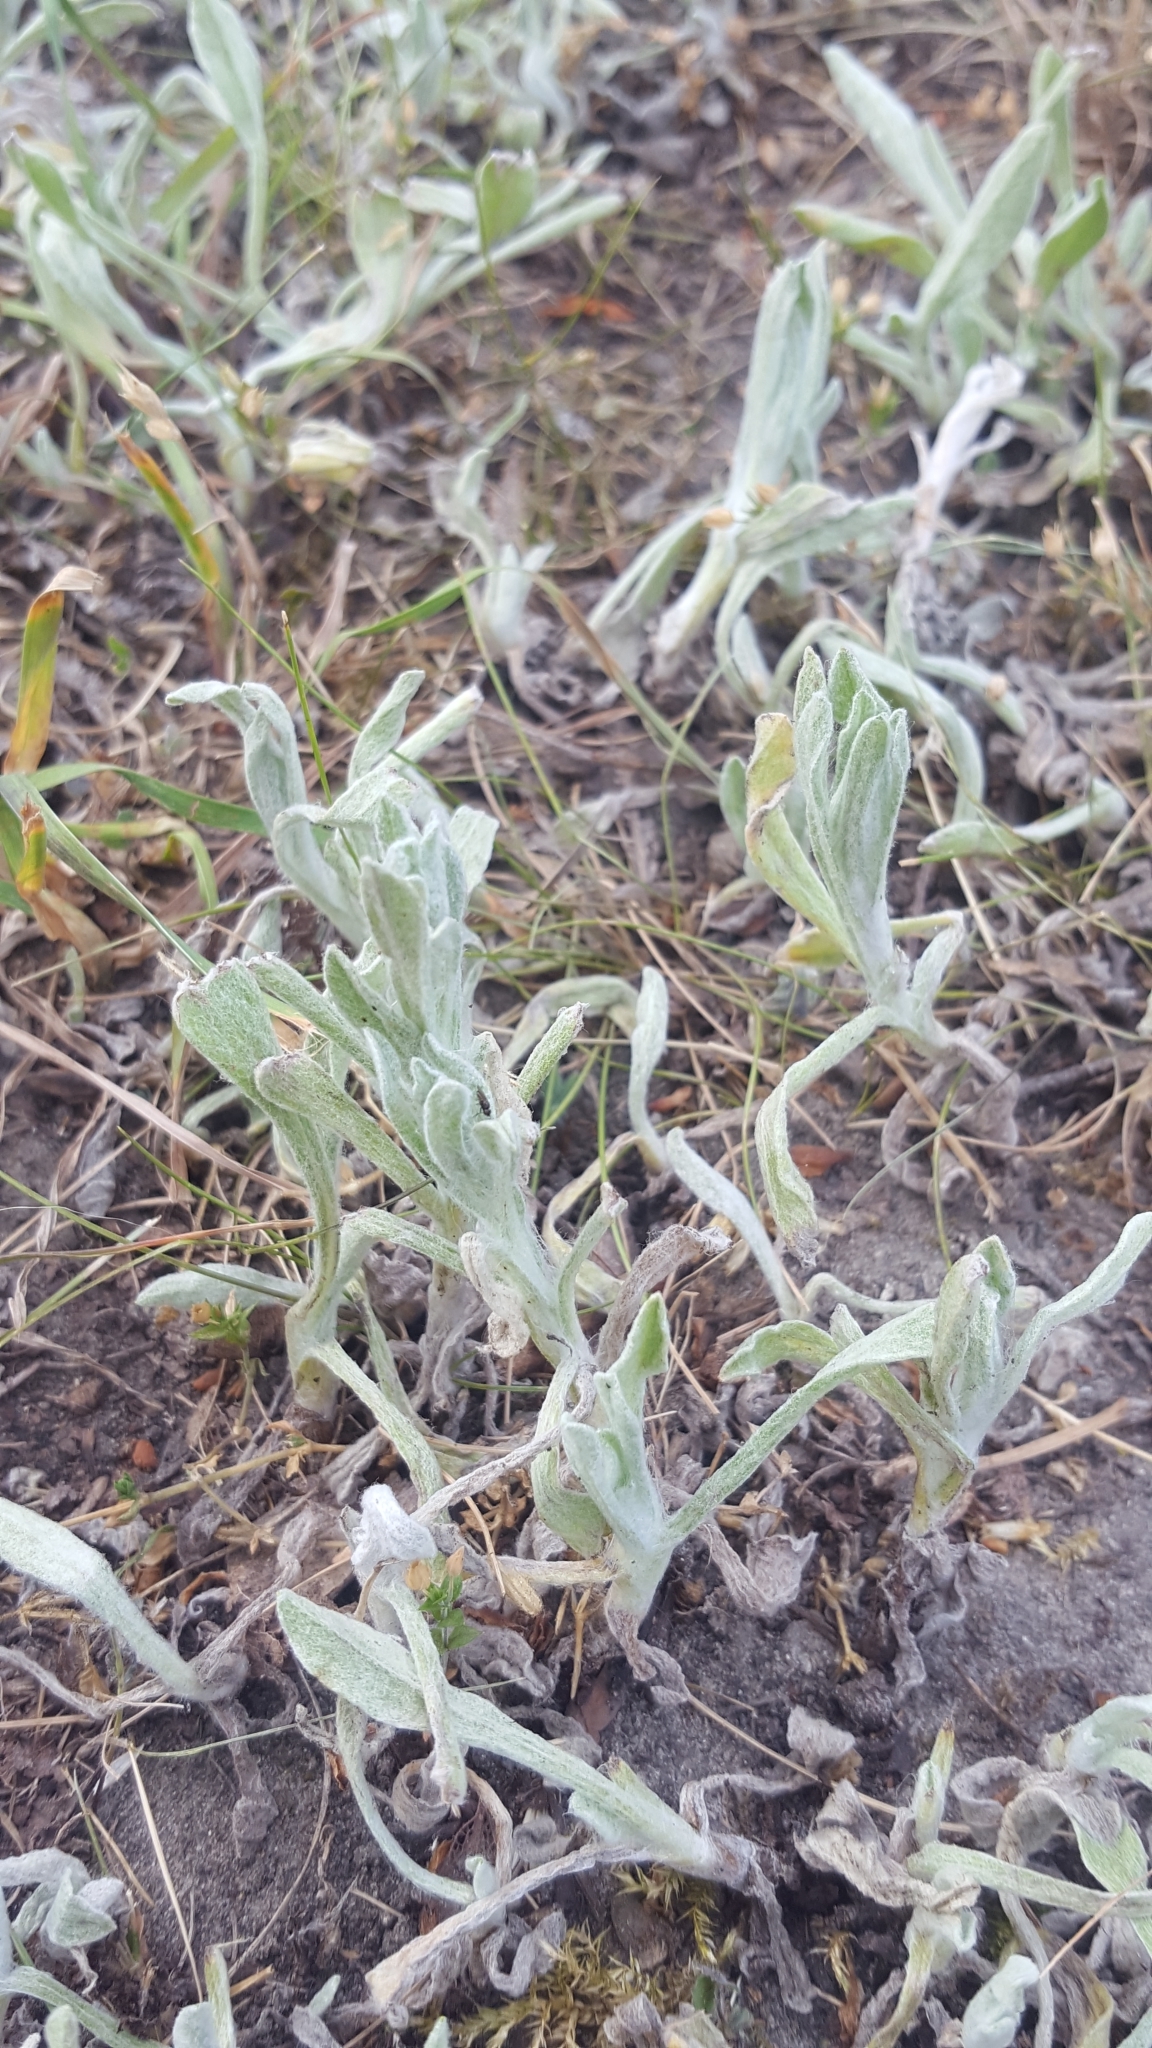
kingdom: Plantae
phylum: Tracheophyta
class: Magnoliopsida
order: Asterales
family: Asteraceae
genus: Helichrysum
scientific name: Helichrysum arenarium
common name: Strawflower
